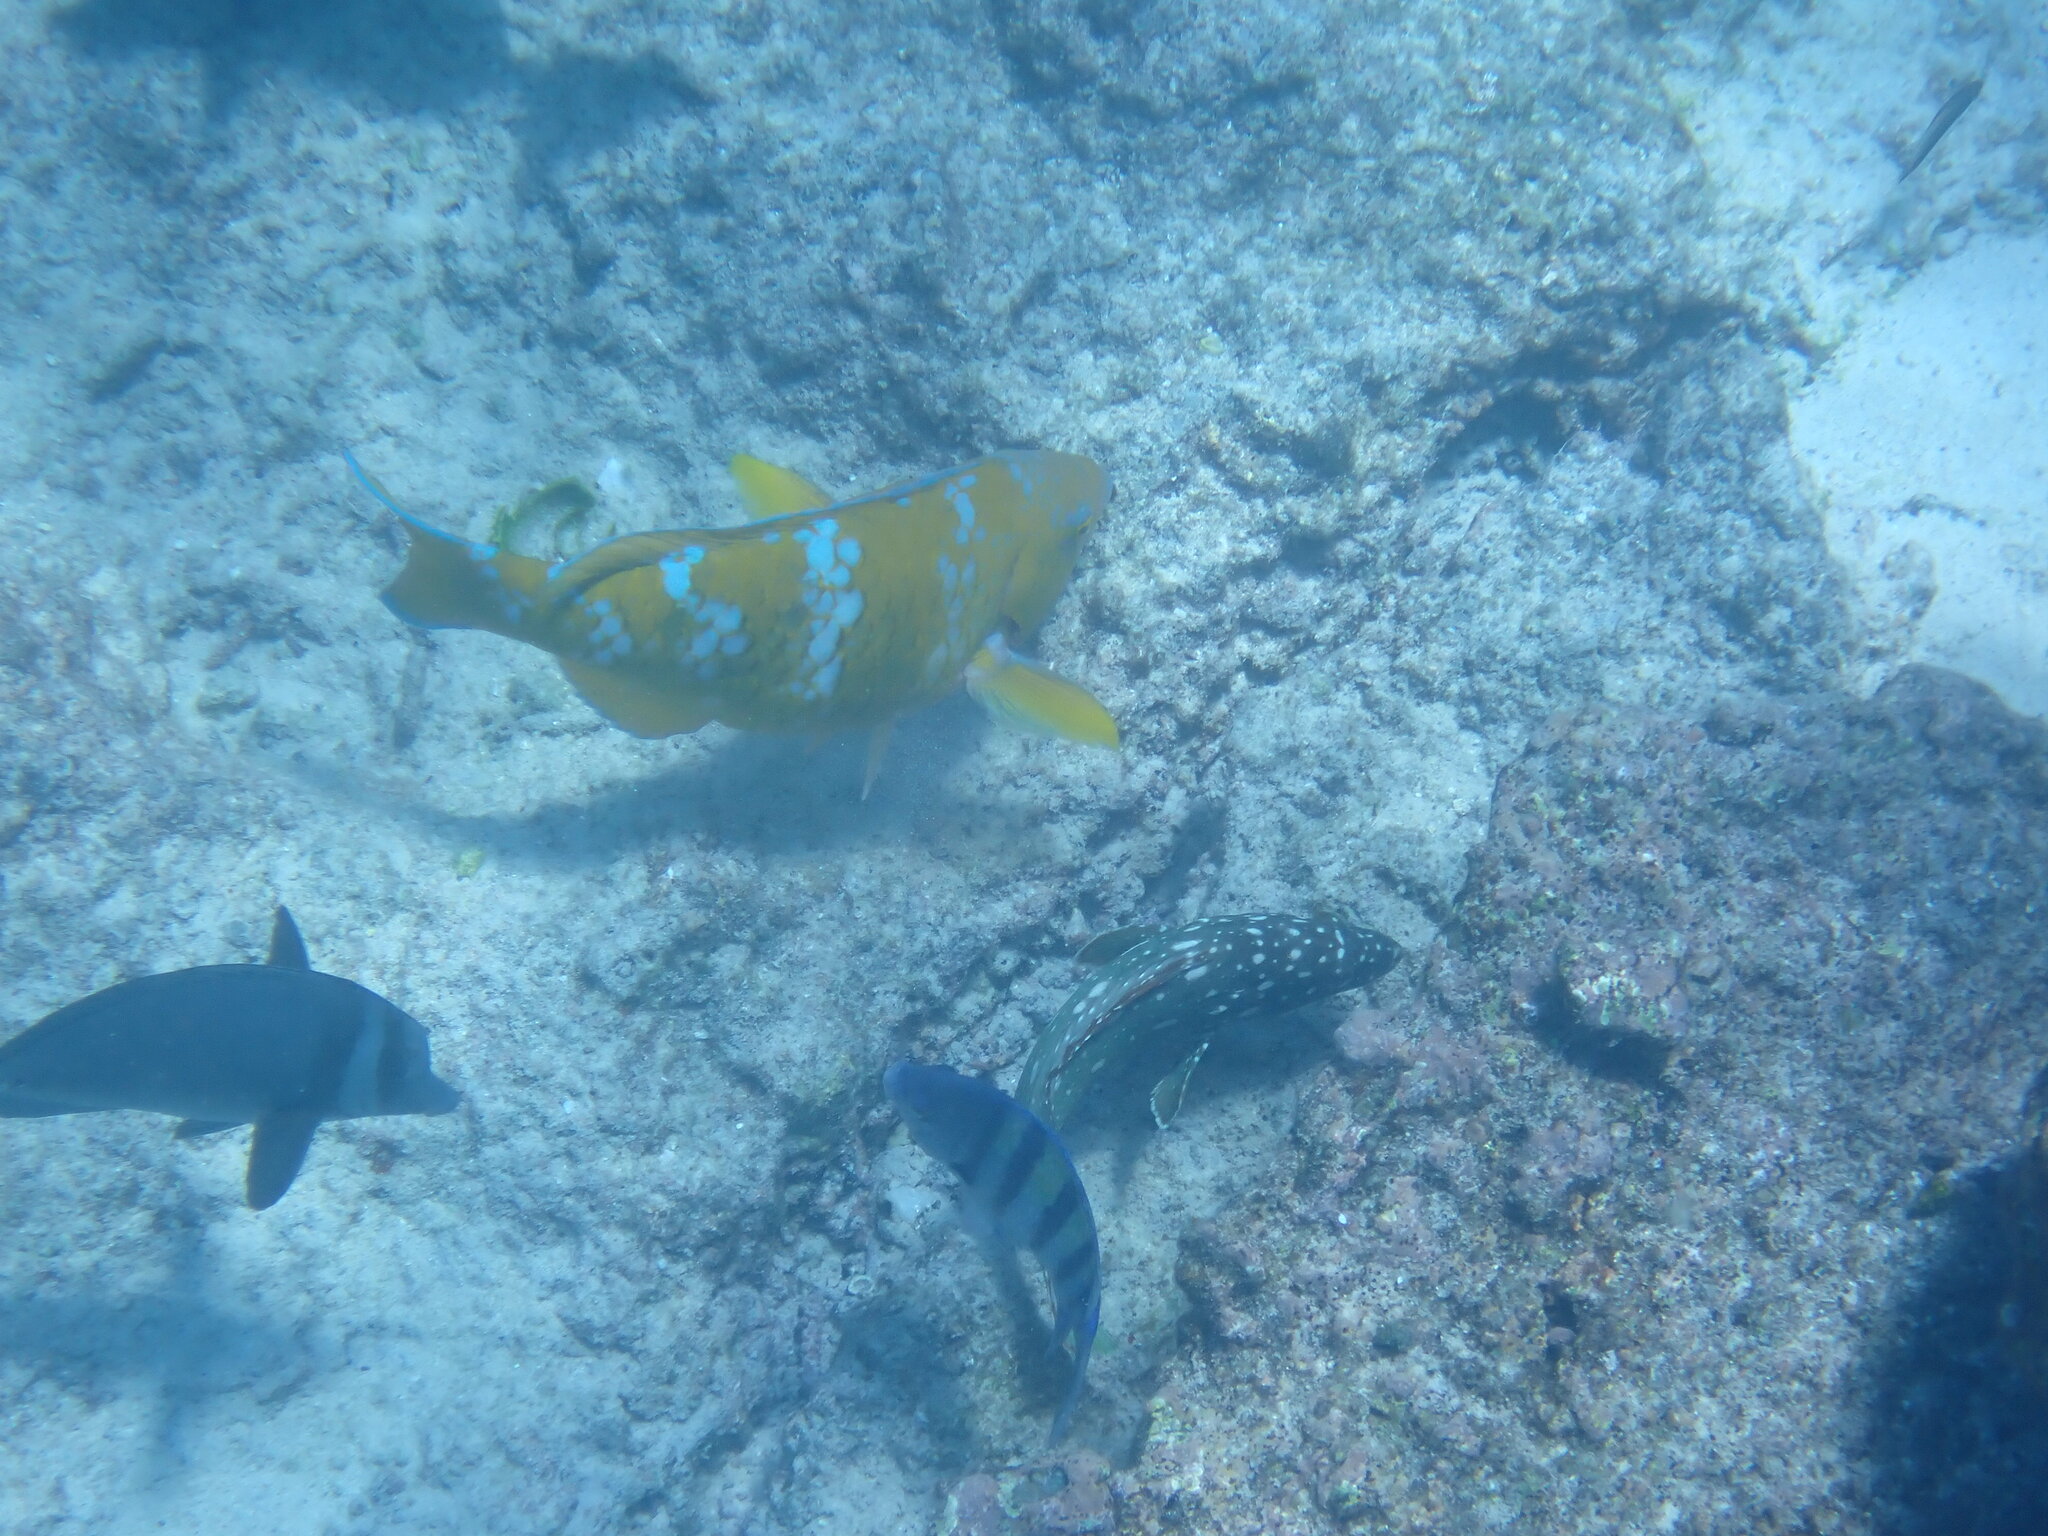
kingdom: Animalia
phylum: Chordata
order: Perciformes
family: Scaridae
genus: Scarus
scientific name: Scarus ghobban
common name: Blue-barred parrotfish
